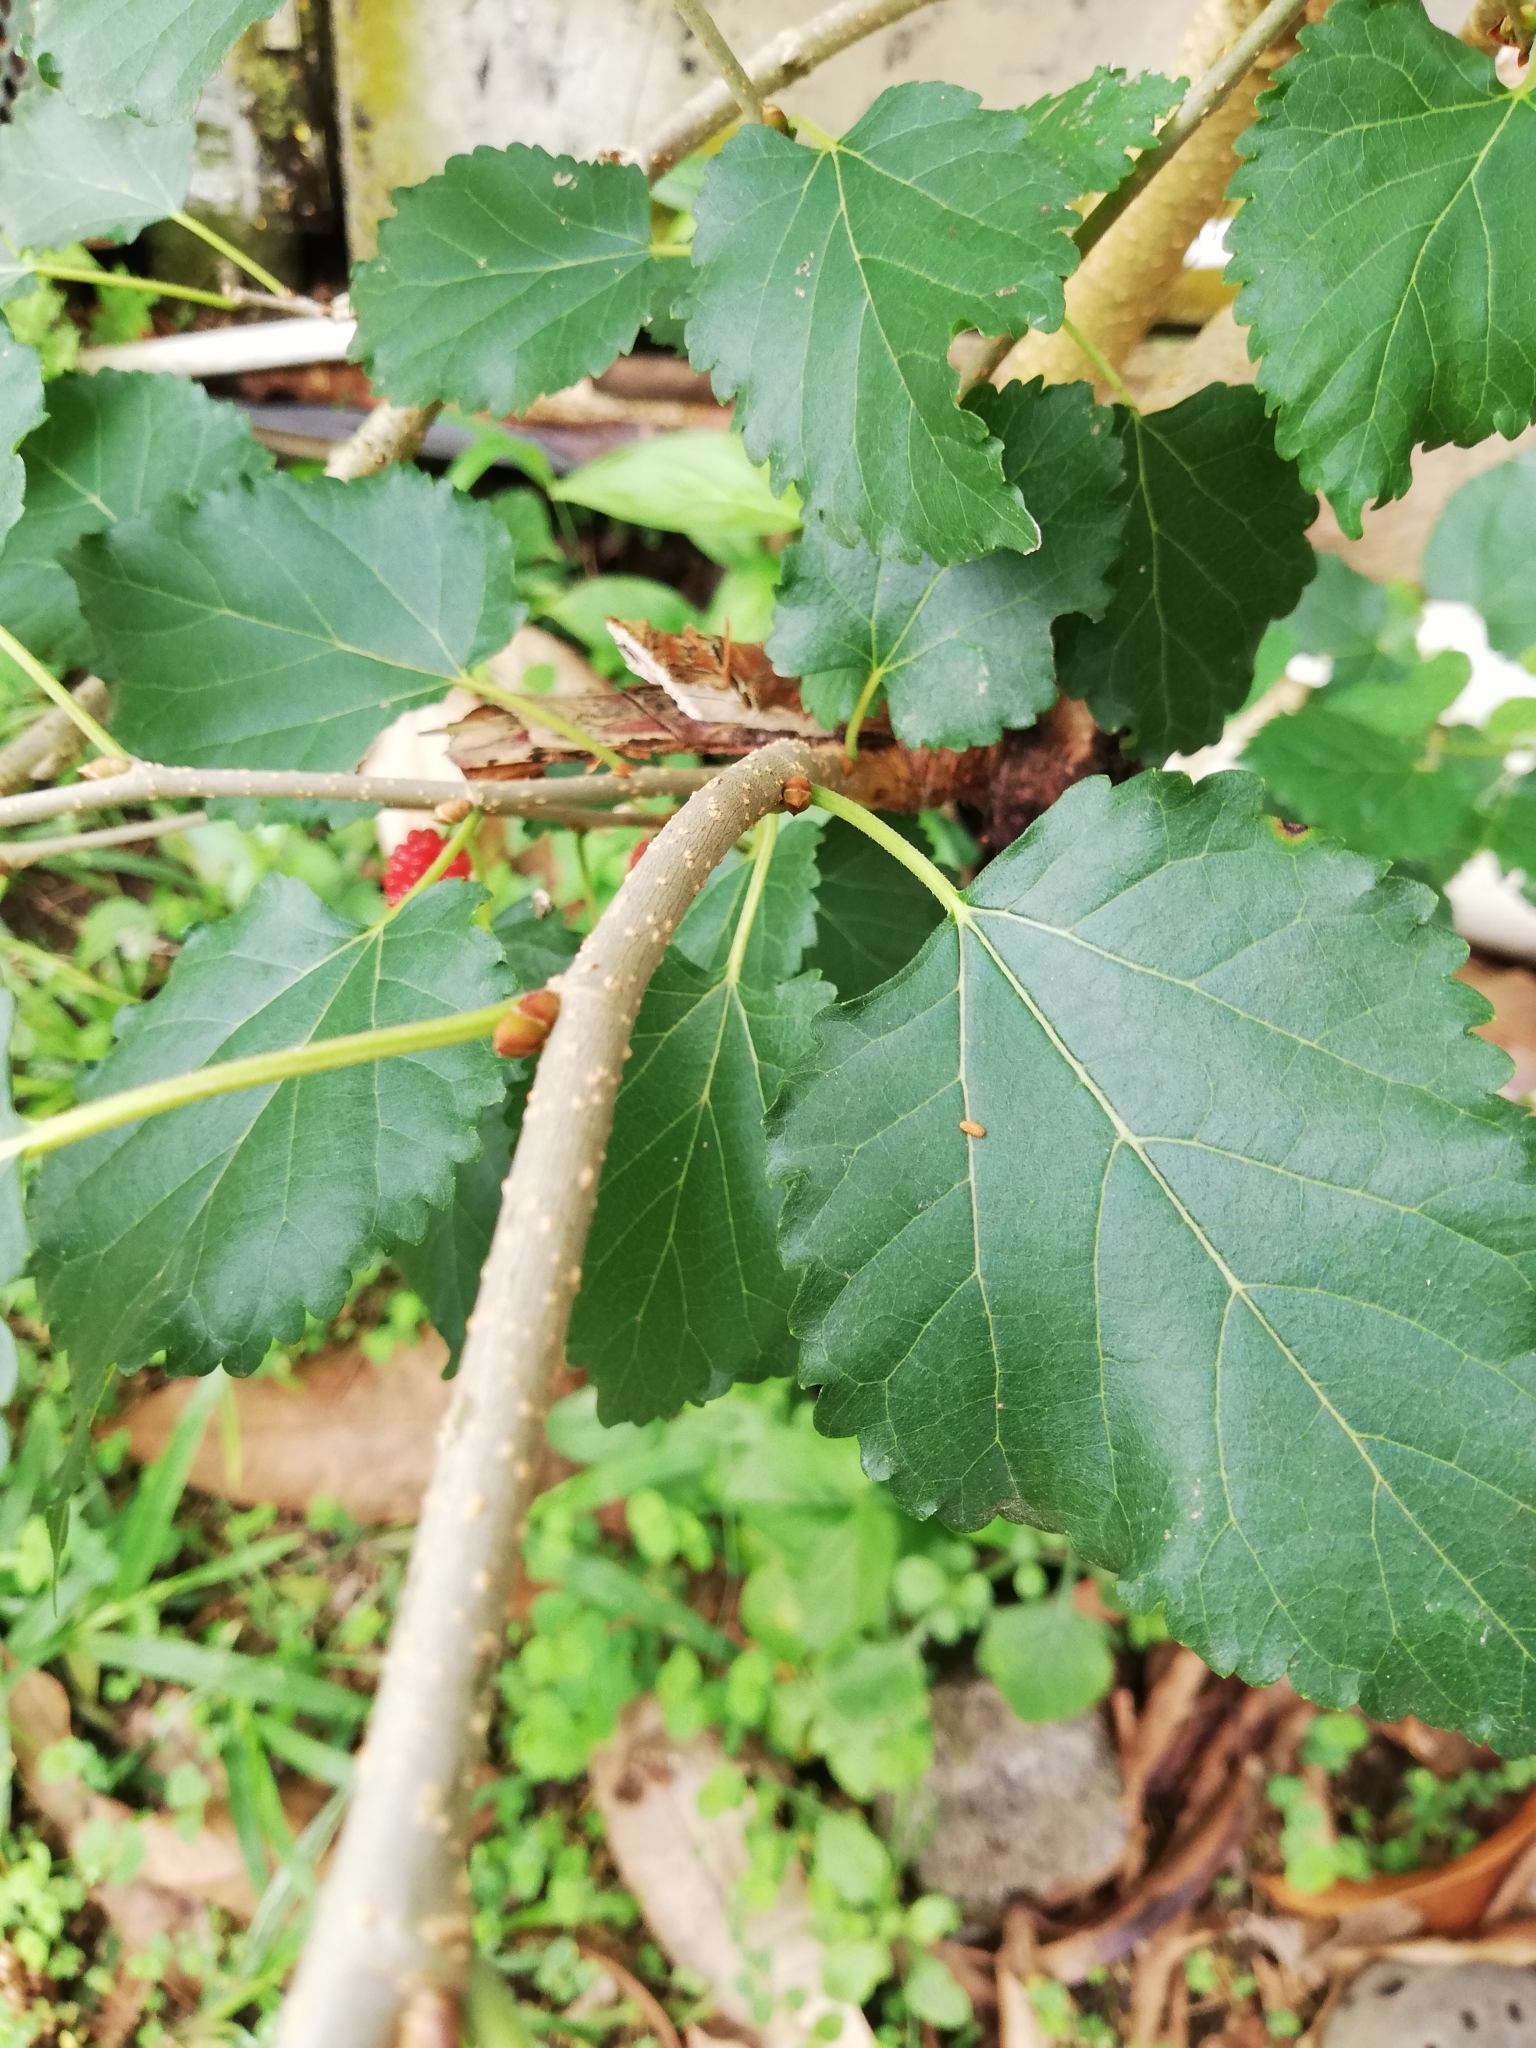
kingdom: Plantae
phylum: Tracheophyta
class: Magnoliopsida
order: Rosales
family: Moraceae
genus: Morus
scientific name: Morus nigra
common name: Black mulberry
